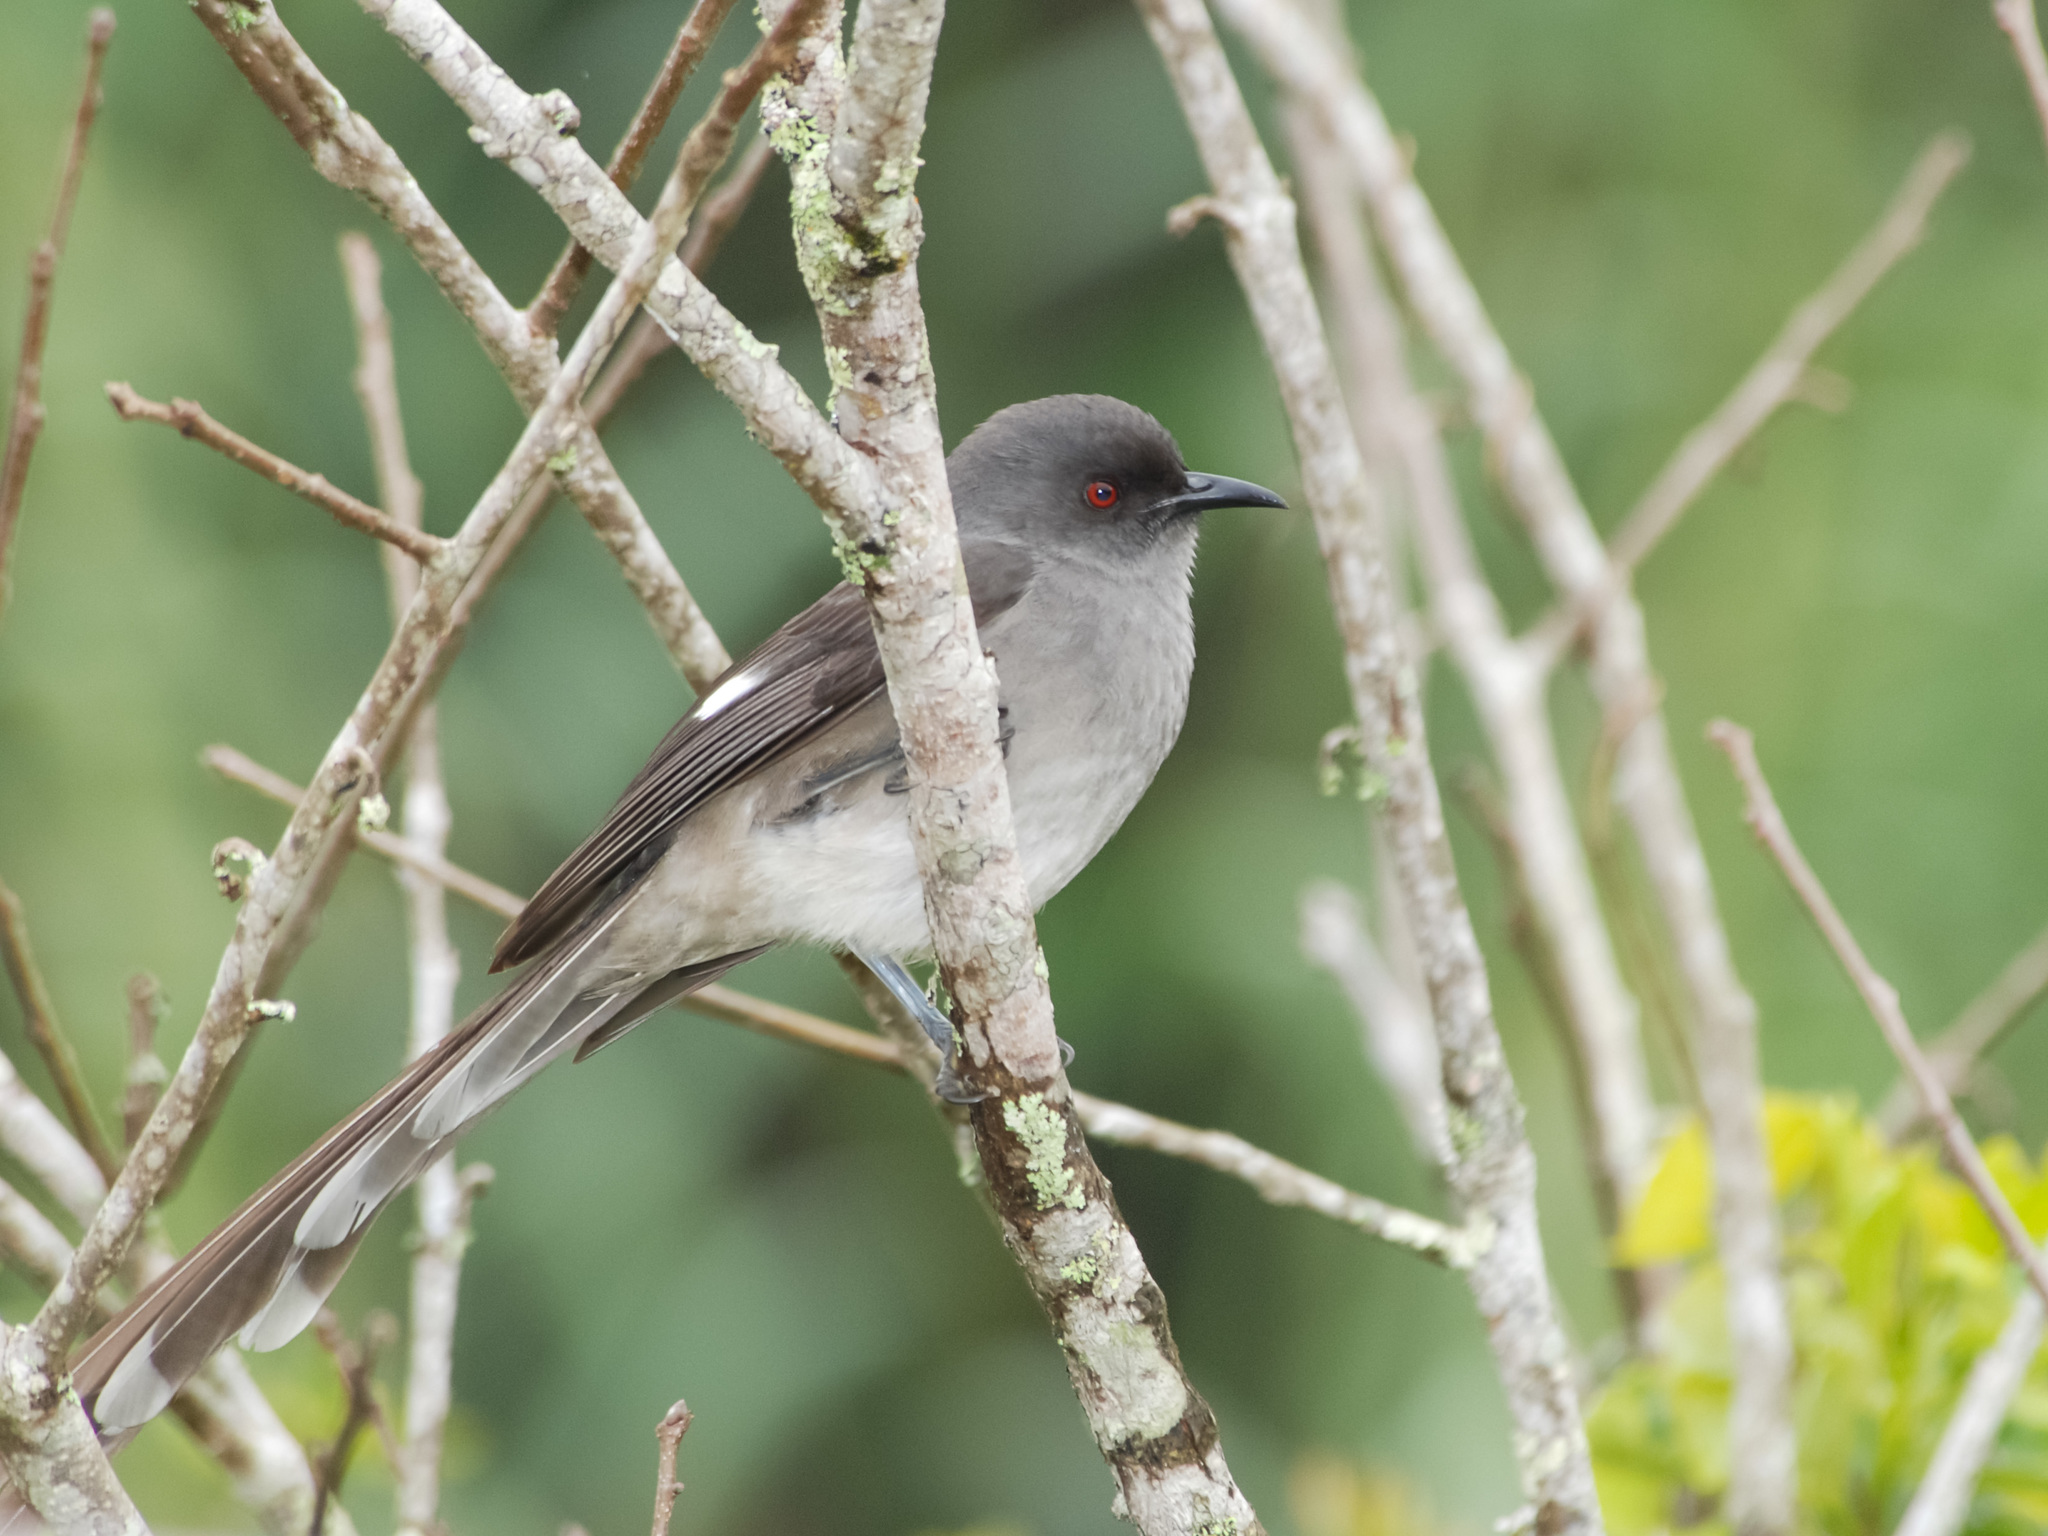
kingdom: Animalia
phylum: Chordata
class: Aves
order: Passeriformes
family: Leiothrichidae
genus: Heterophasia
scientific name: Heterophasia picaoides
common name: Long-tailed sibia
